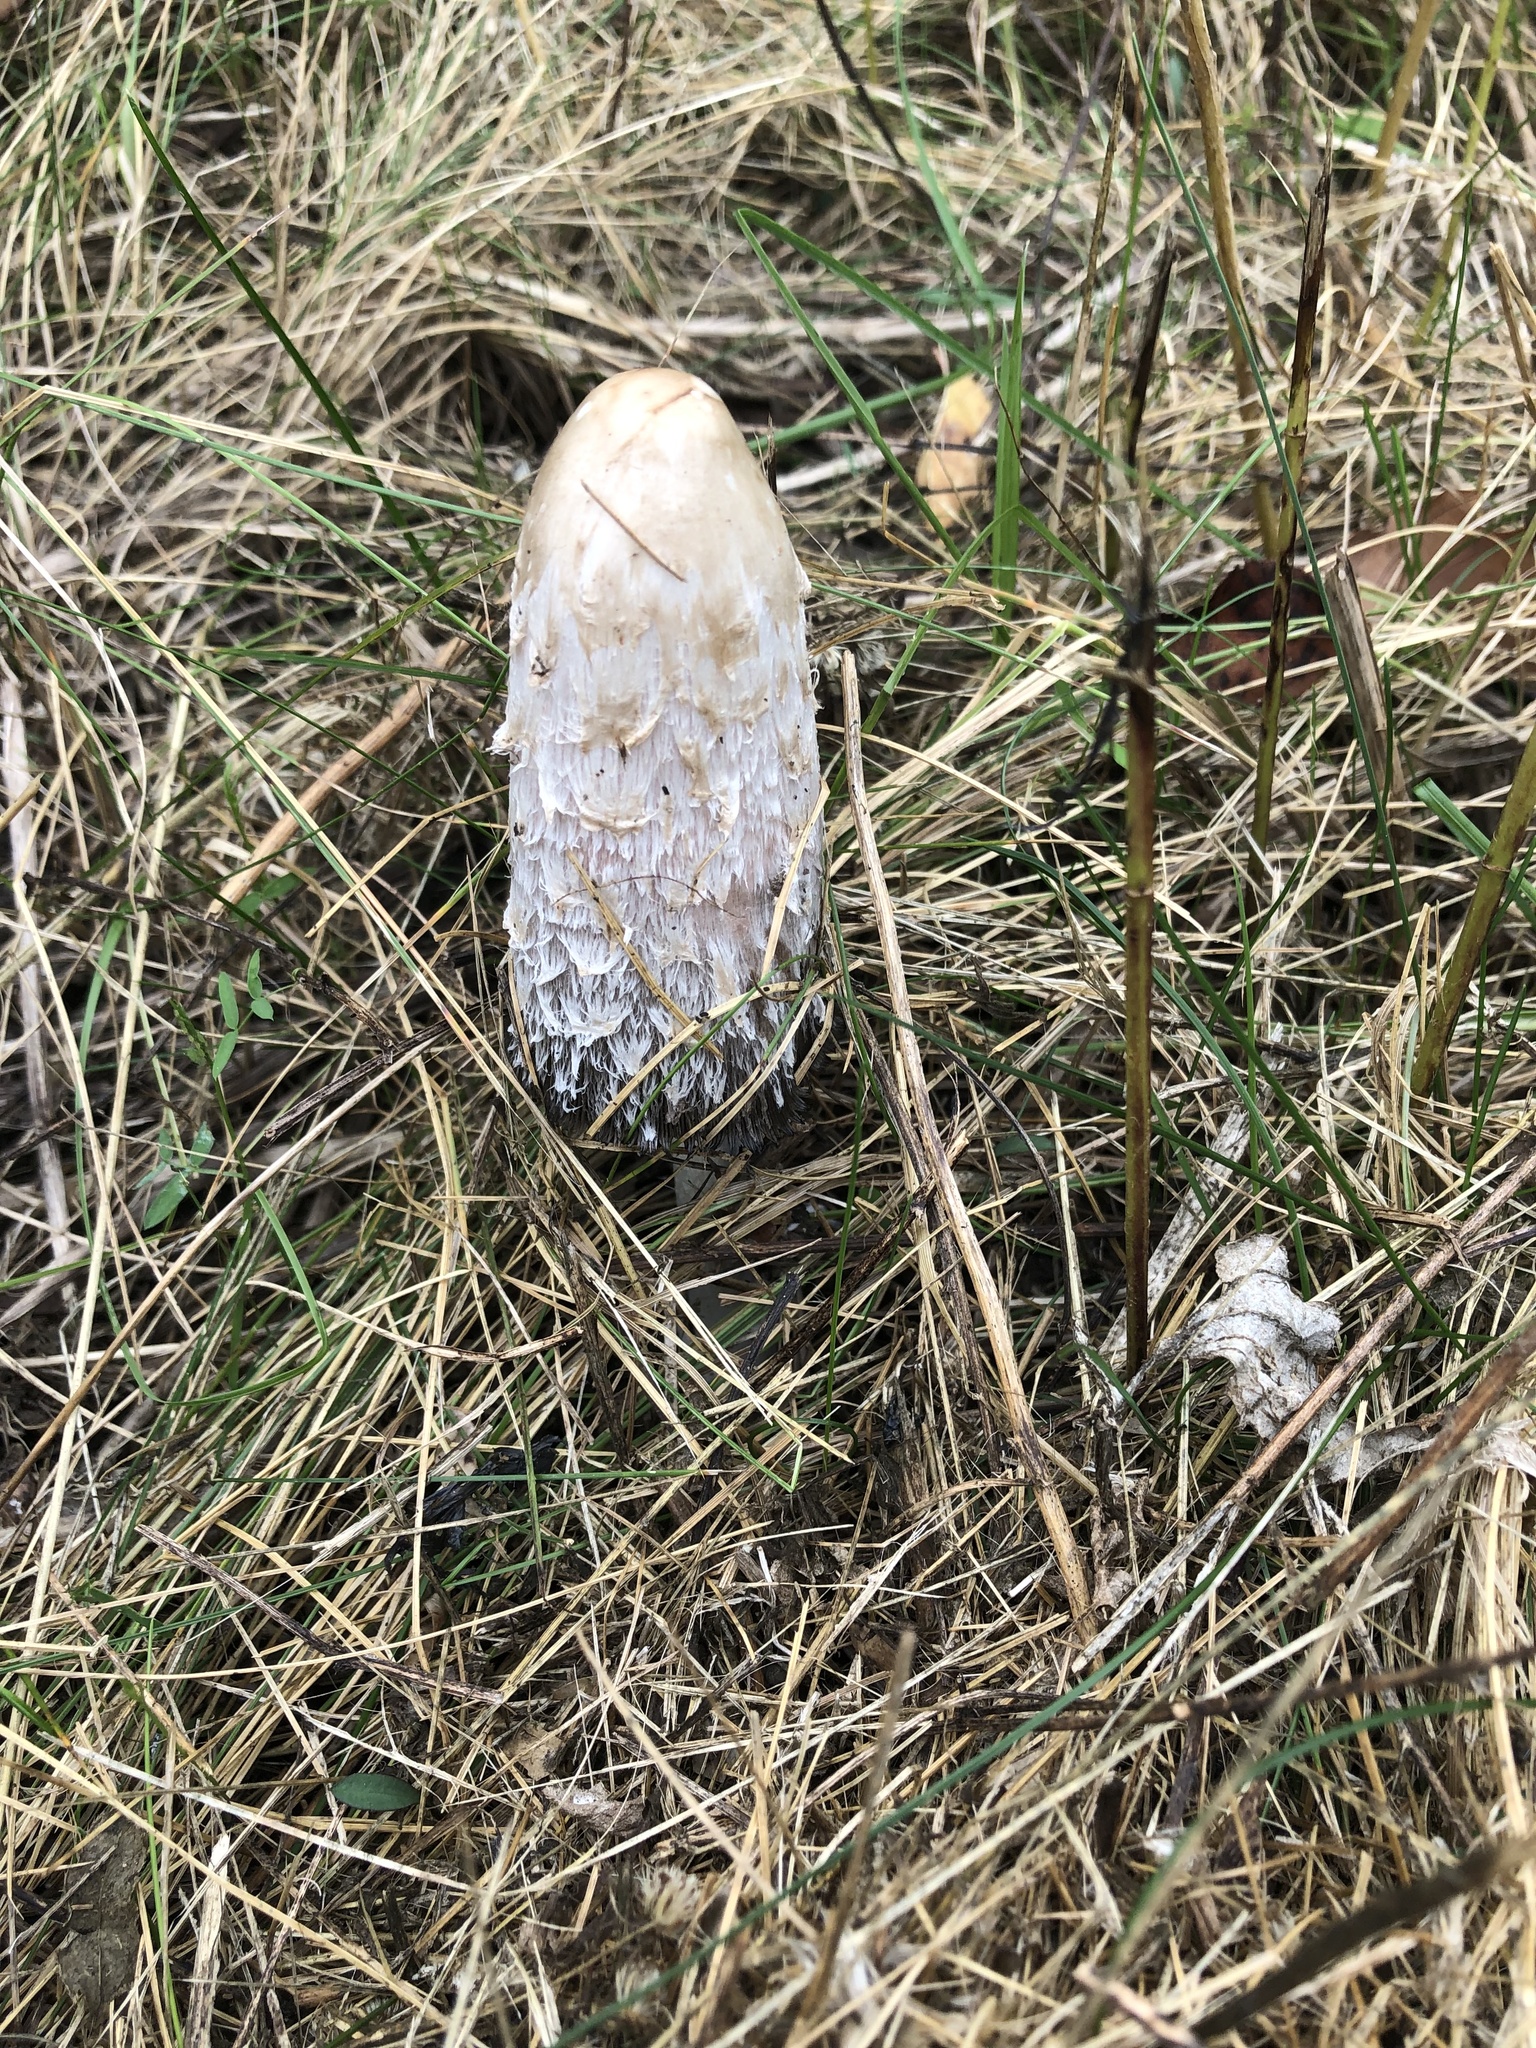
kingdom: Fungi
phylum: Basidiomycota
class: Agaricomycetes
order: Agaricales
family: Agaricaceae
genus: Coprinus
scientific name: Coprinus comatus
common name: Lawyer's wig
